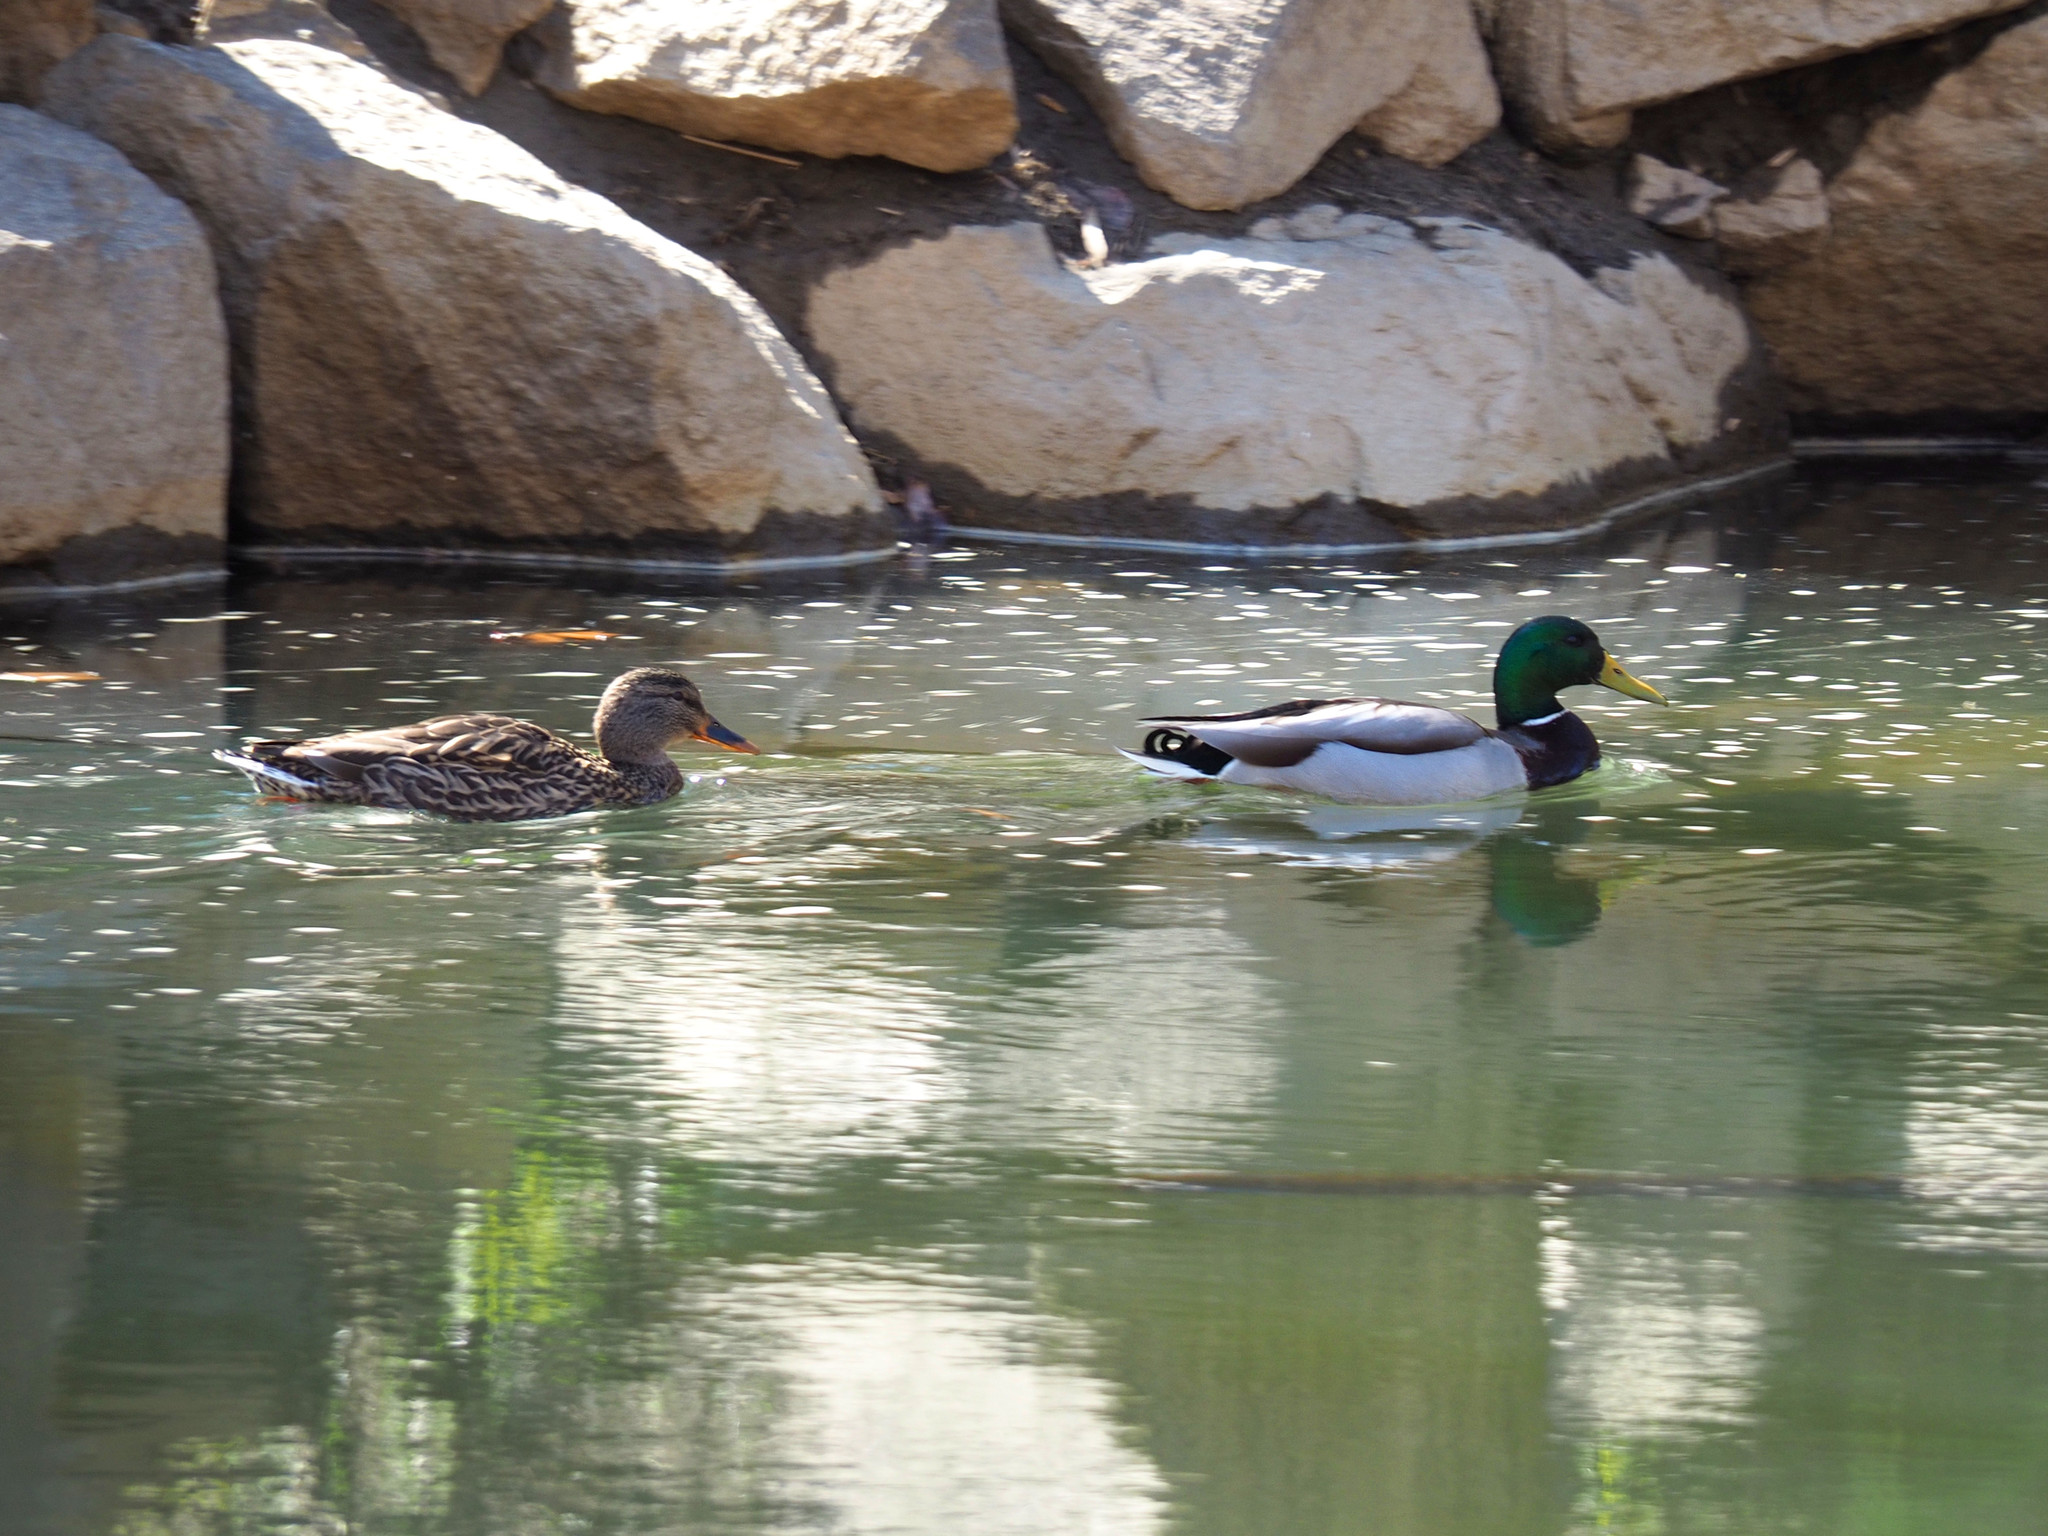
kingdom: Animalia
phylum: Chordata
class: Aves
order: Anseriformes
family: Anatidae
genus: Anas
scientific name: Anas platyrhynchos
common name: Mallard
